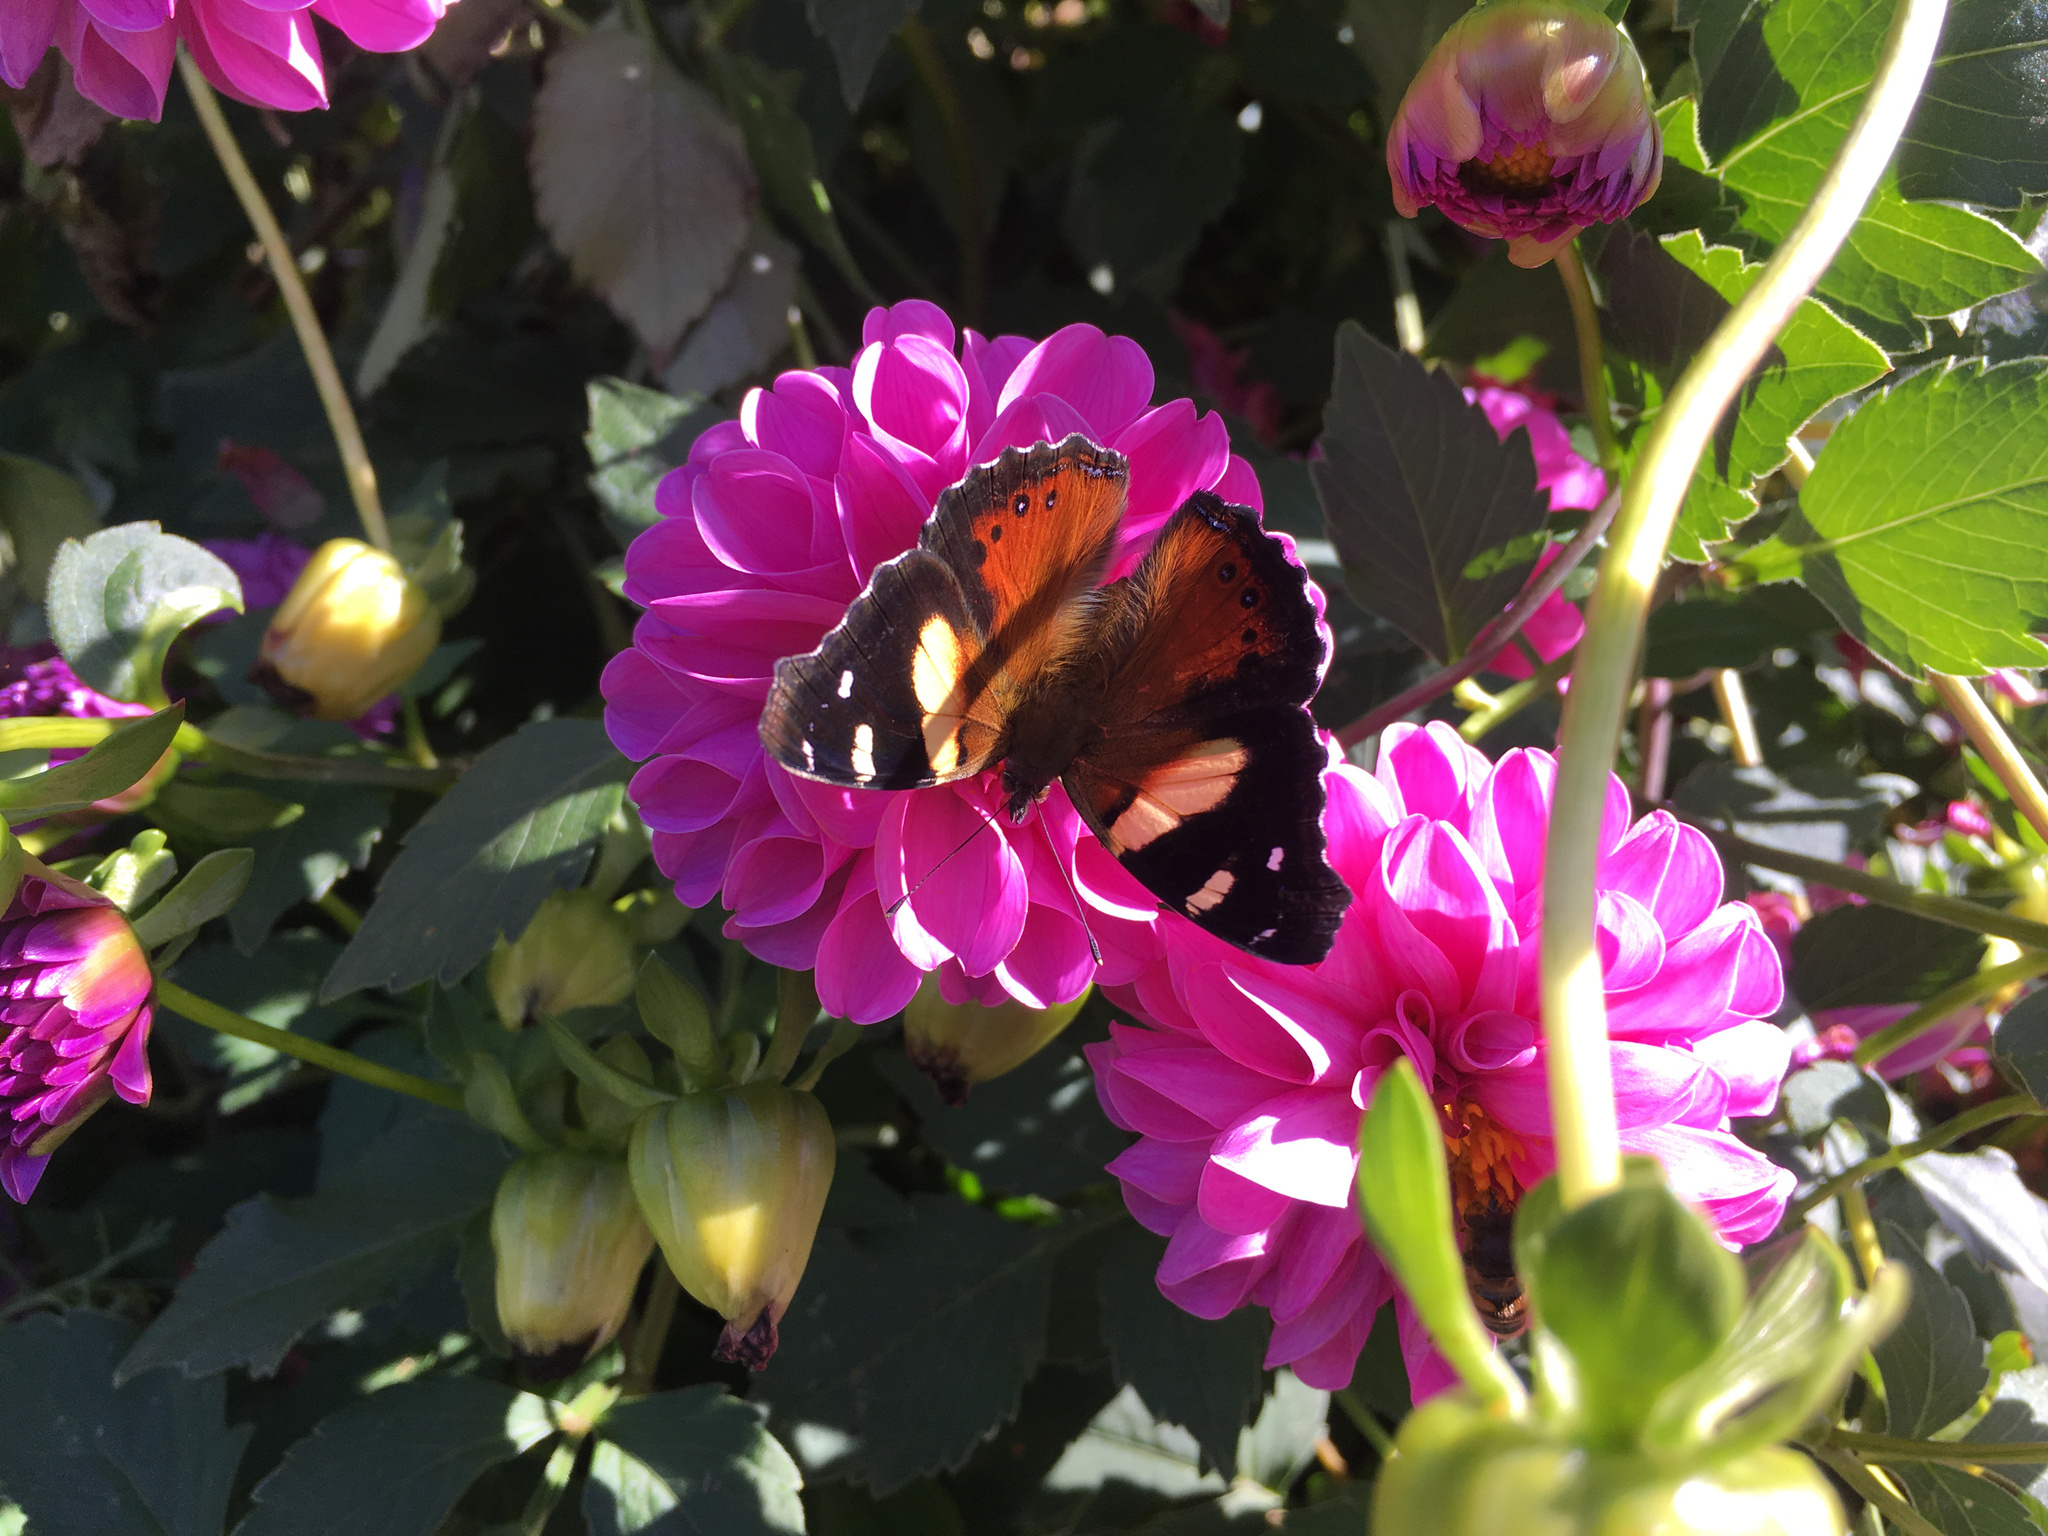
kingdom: Animalia
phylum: Arthropoda
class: Insecta
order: Lepidoptera
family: Nymphalidae
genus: Vanessa
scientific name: Vanessa itea
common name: Yellow admiral
